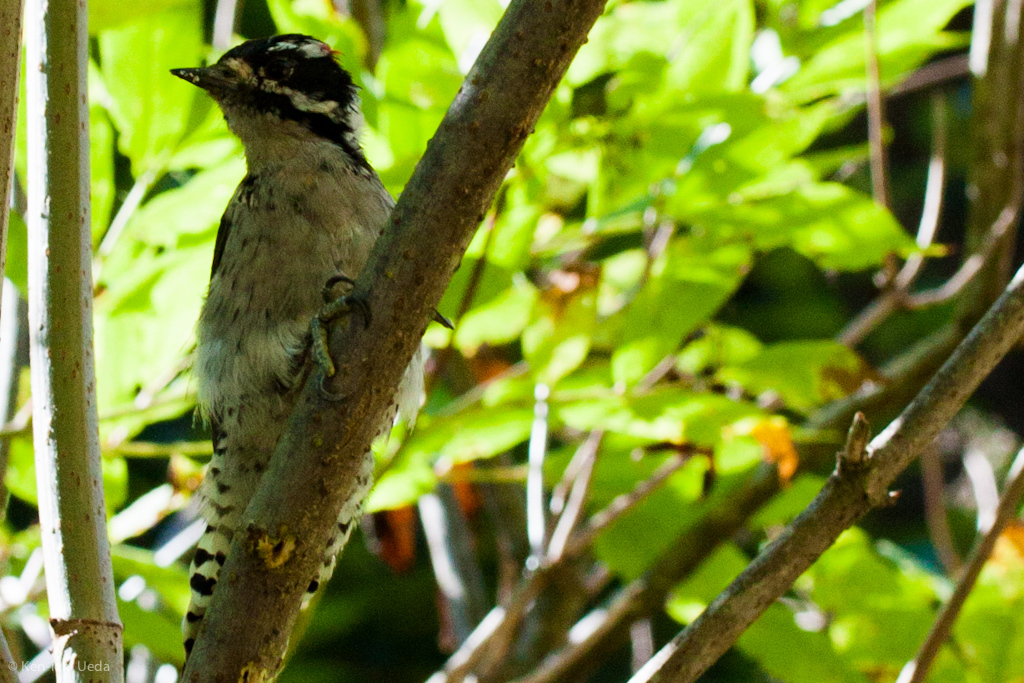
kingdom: Animalia
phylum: Chordata
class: Aves
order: Piciformes
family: Picidae
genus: Dryobates
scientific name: Dryobates pubescens
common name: Downy woodpecker
